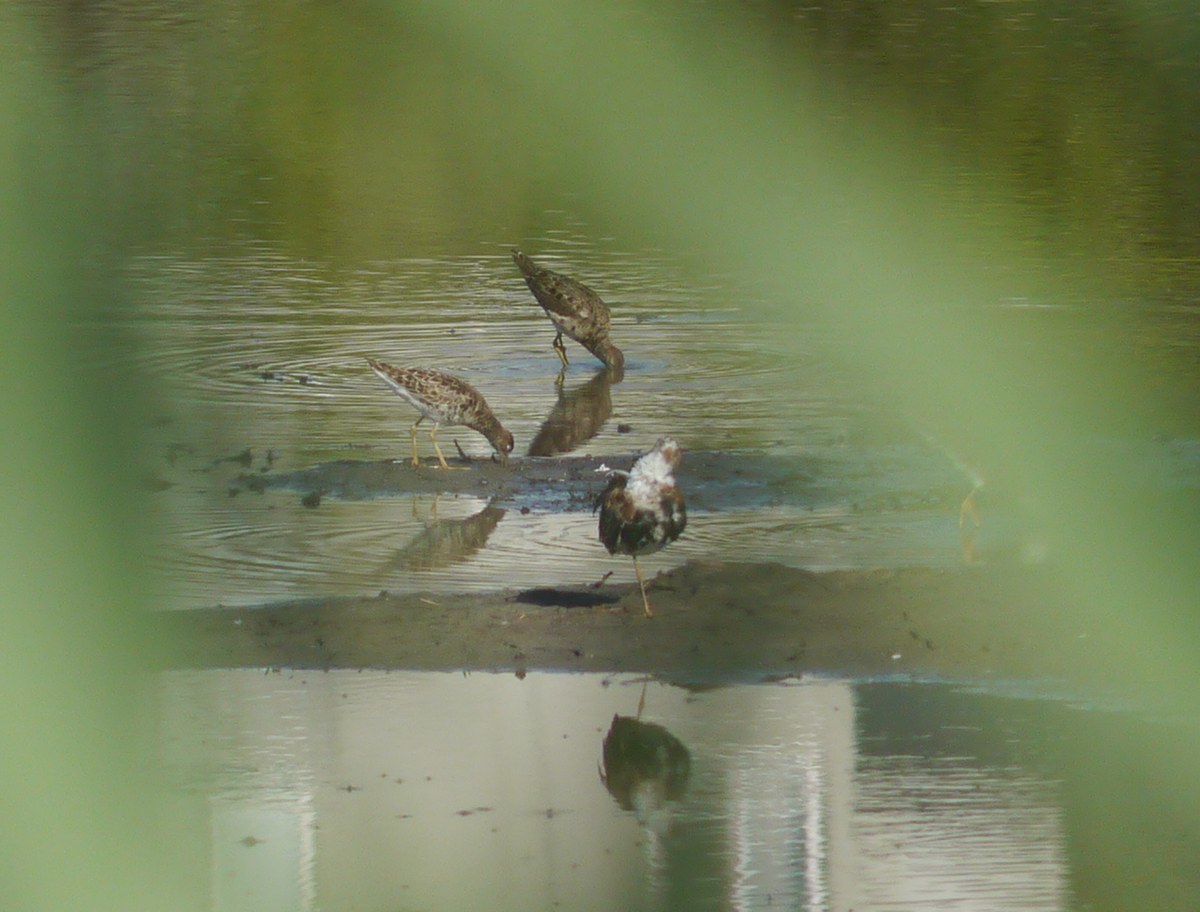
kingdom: Animalia
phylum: Chordata
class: Aves
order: Charadriiformes
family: Scolopacidae
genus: Calidris
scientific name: Calidris pugnax
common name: Ruff
